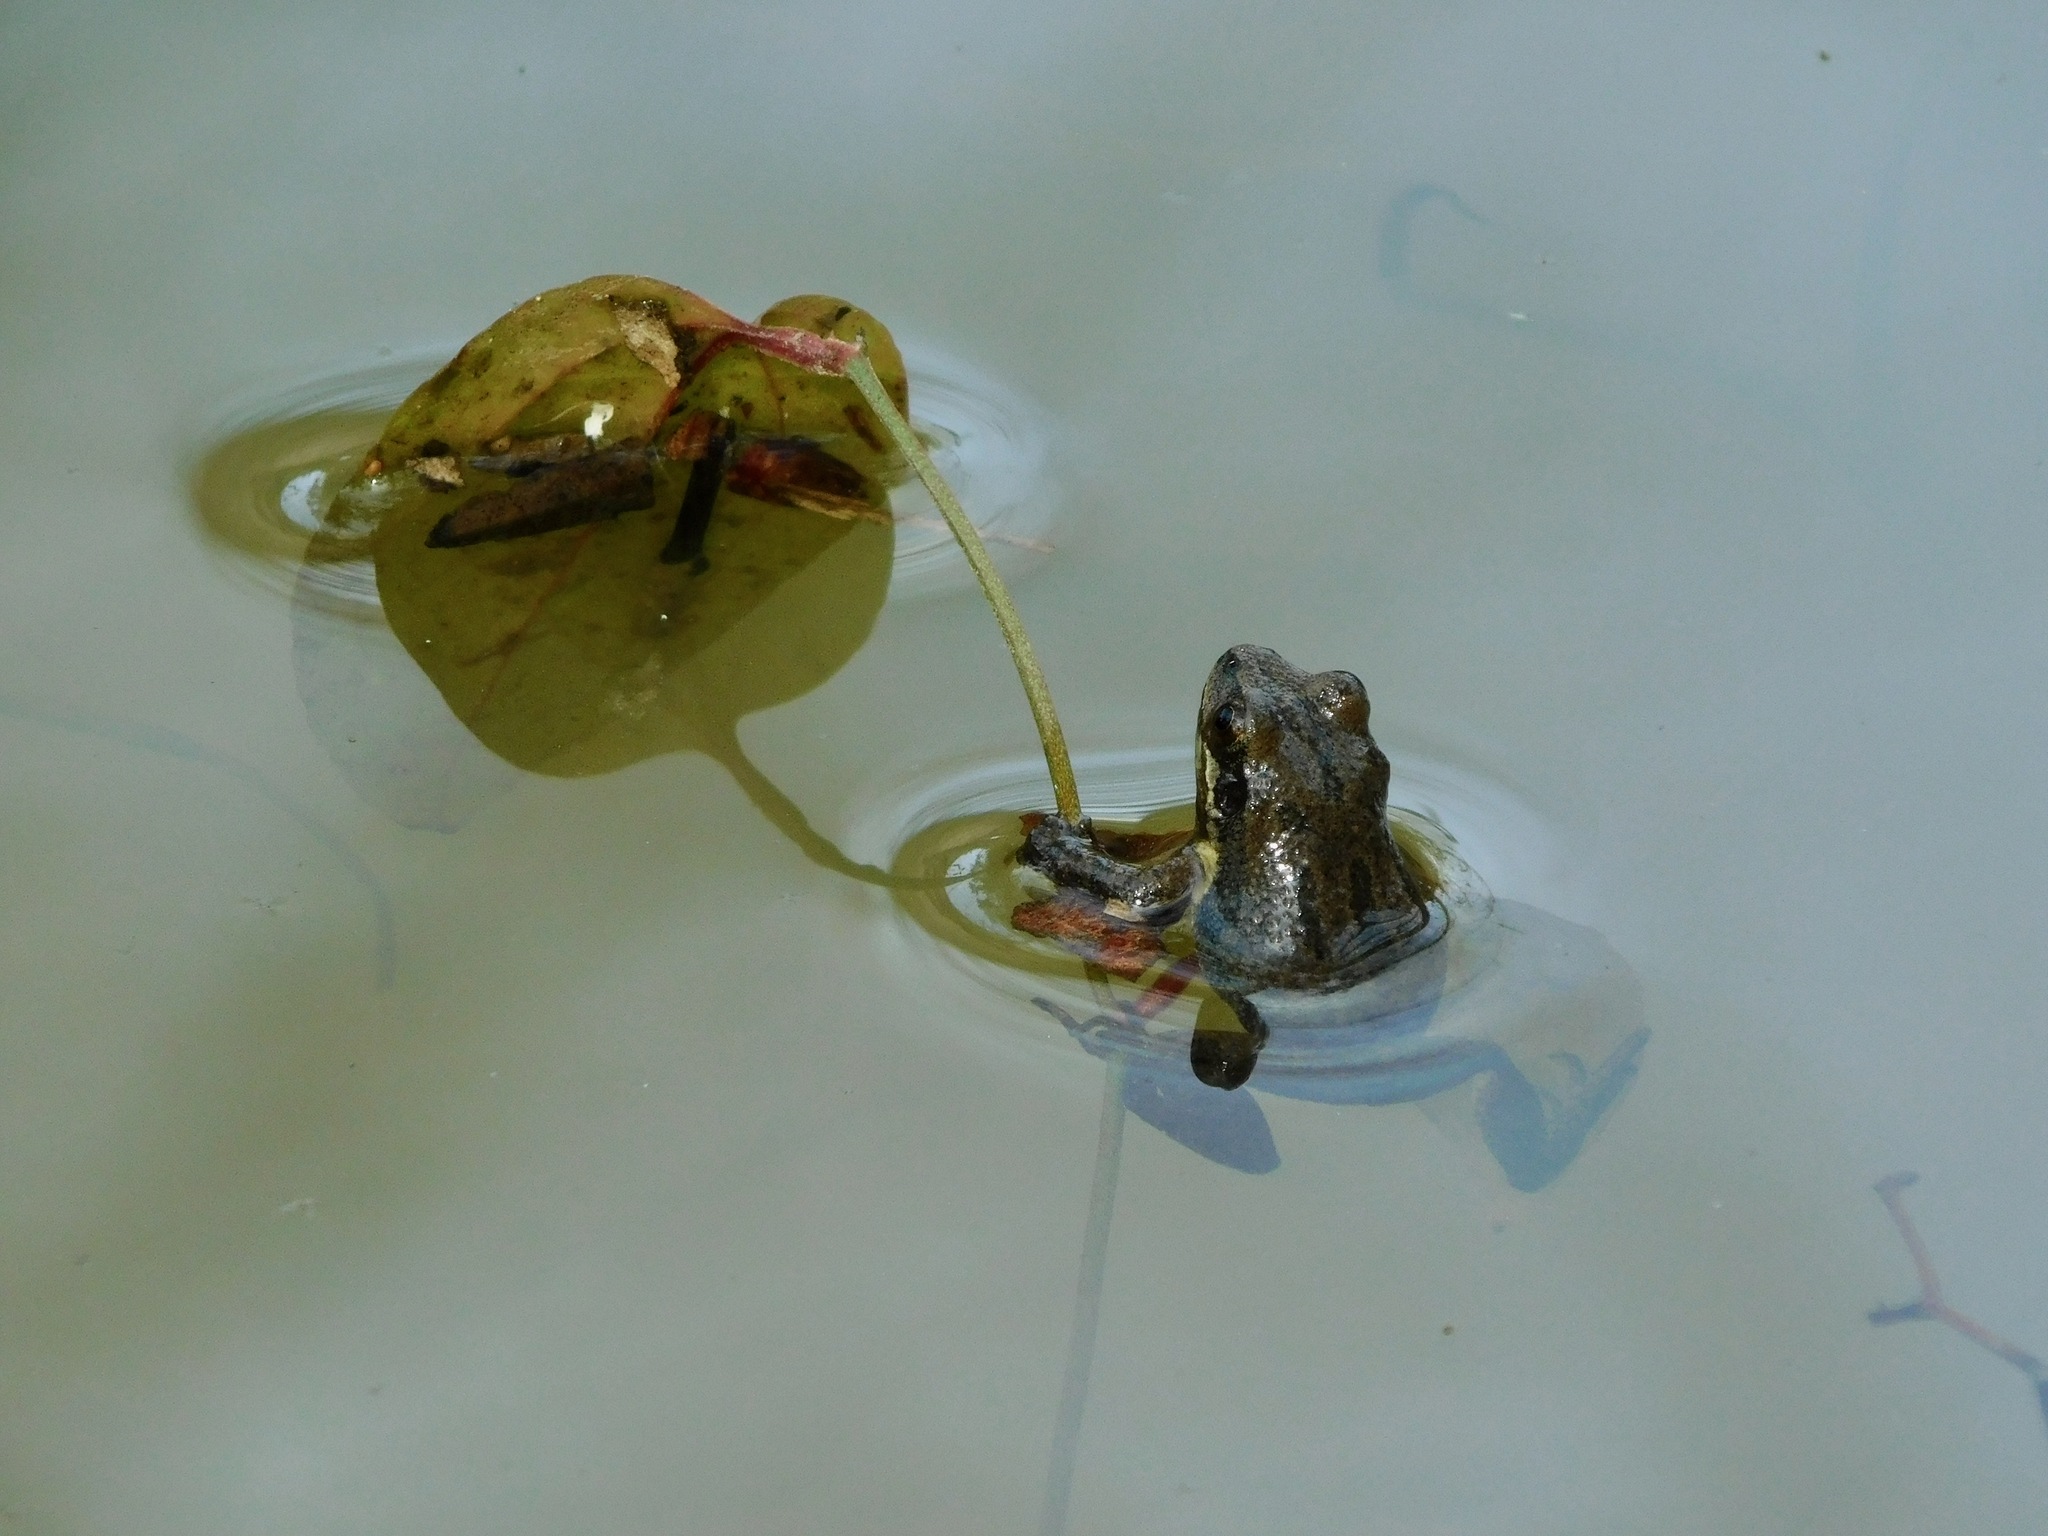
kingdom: Animalia
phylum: Chordata
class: Amphibia
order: Anura
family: Hylidae
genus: Pseudacris
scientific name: Pseudacris feriarum
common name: Upland chorus frog
